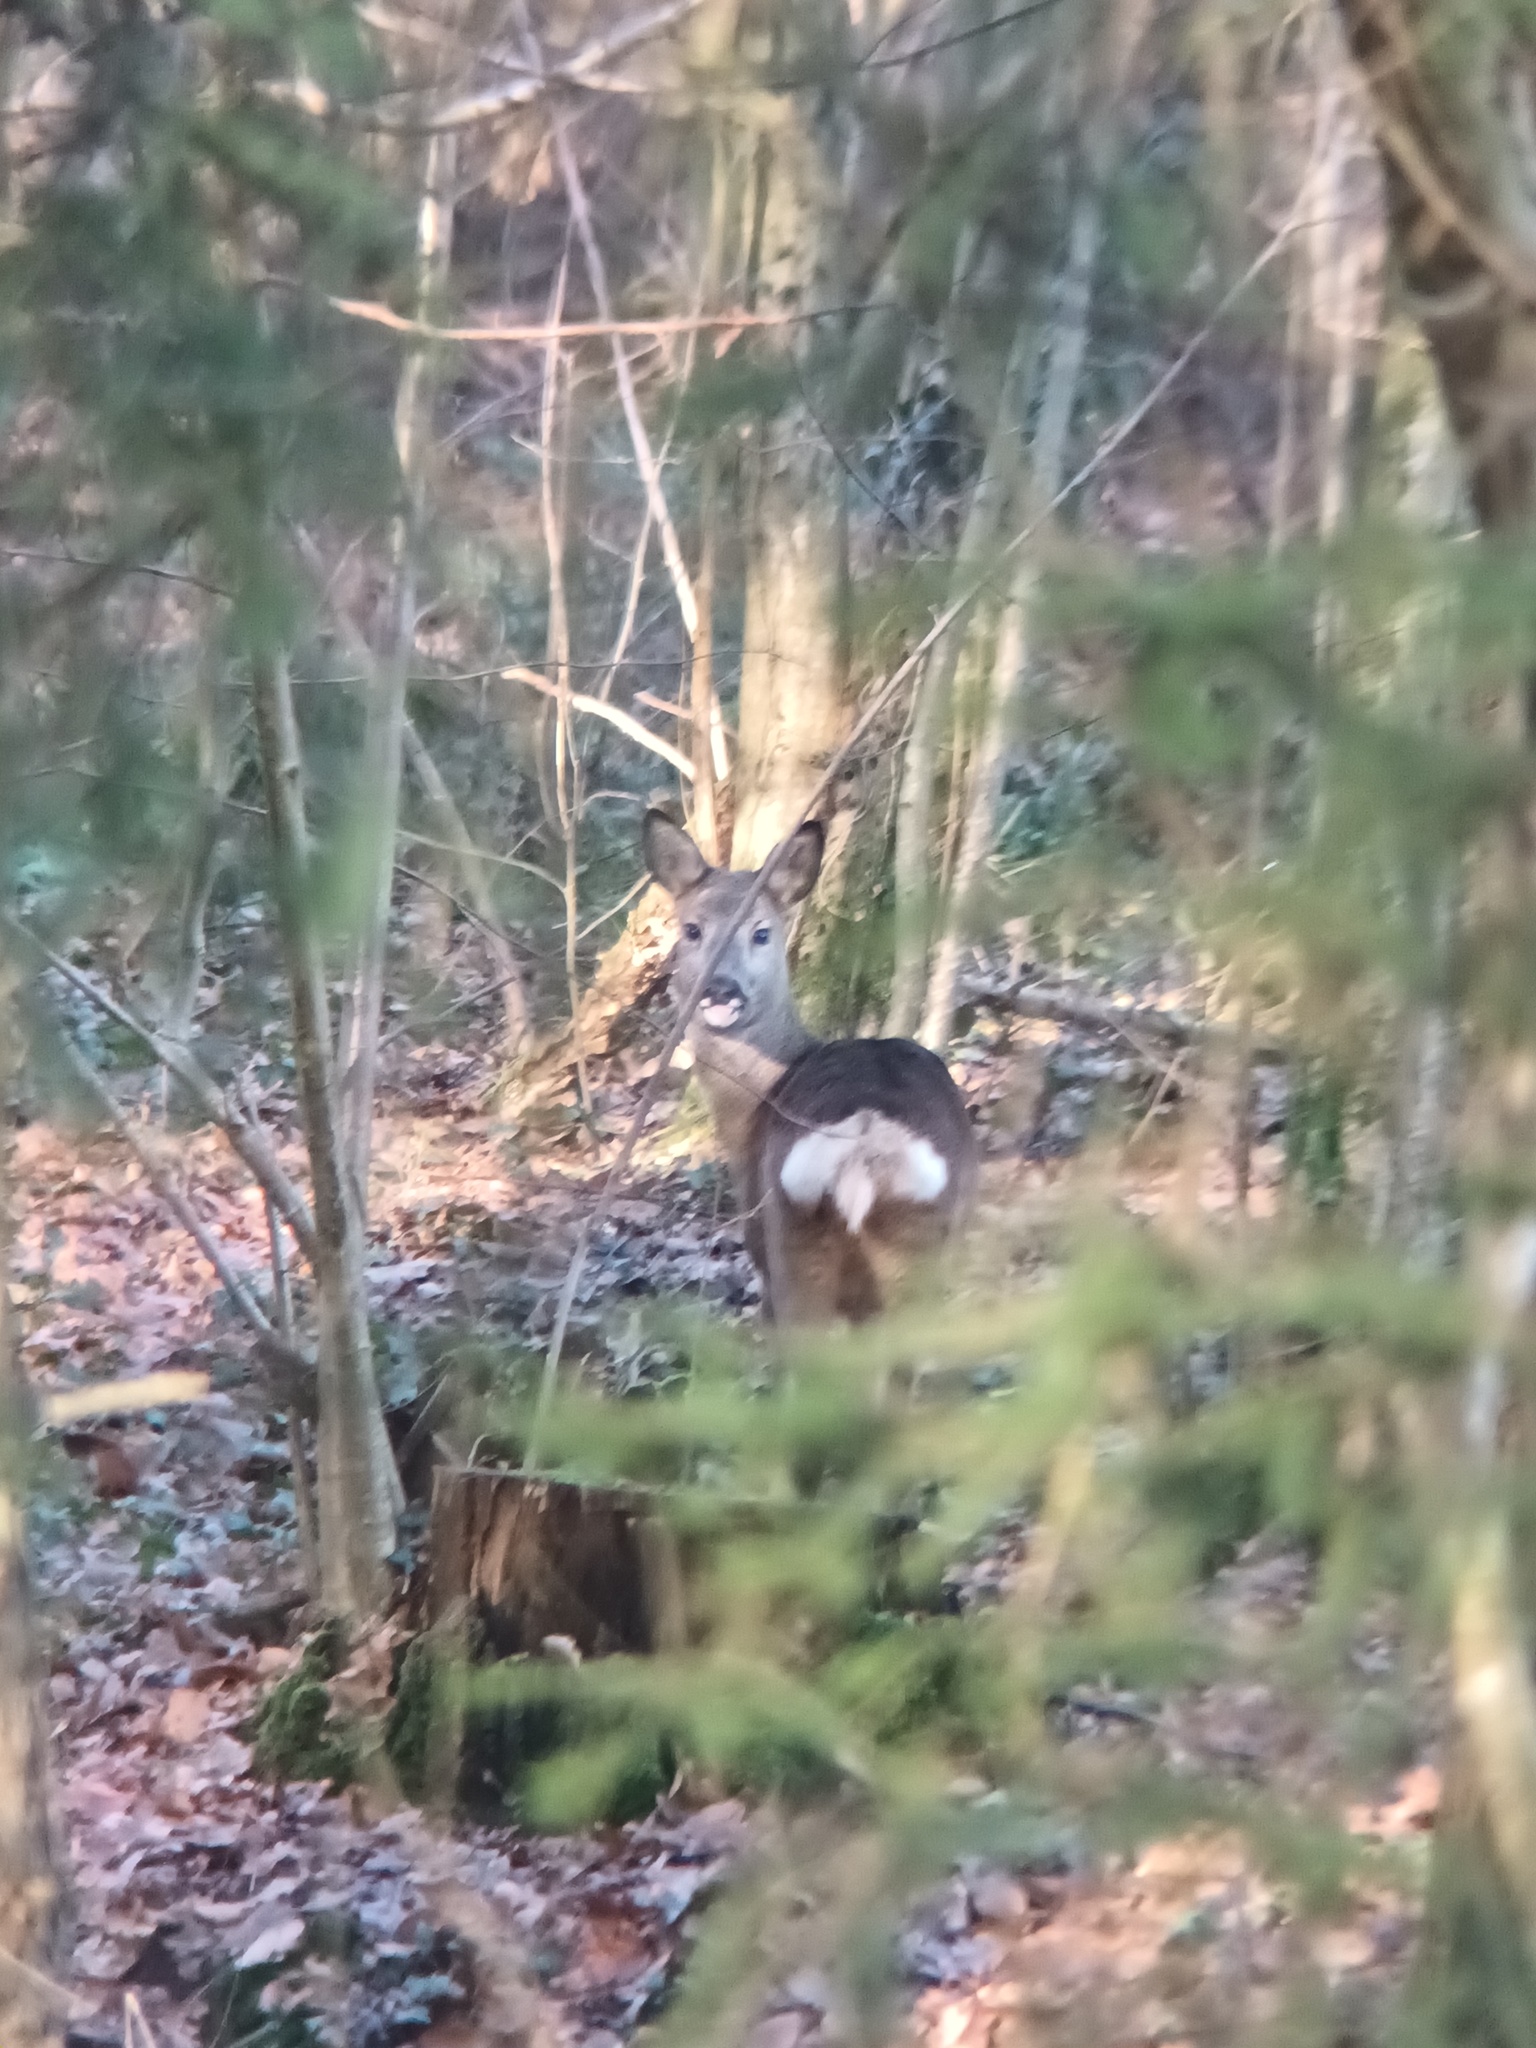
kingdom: Animalia
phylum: Chordata
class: Mammalia
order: Artiodactyla
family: Cervidae
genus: Capreolus
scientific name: Capreolus capreolus
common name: Western roe deer
